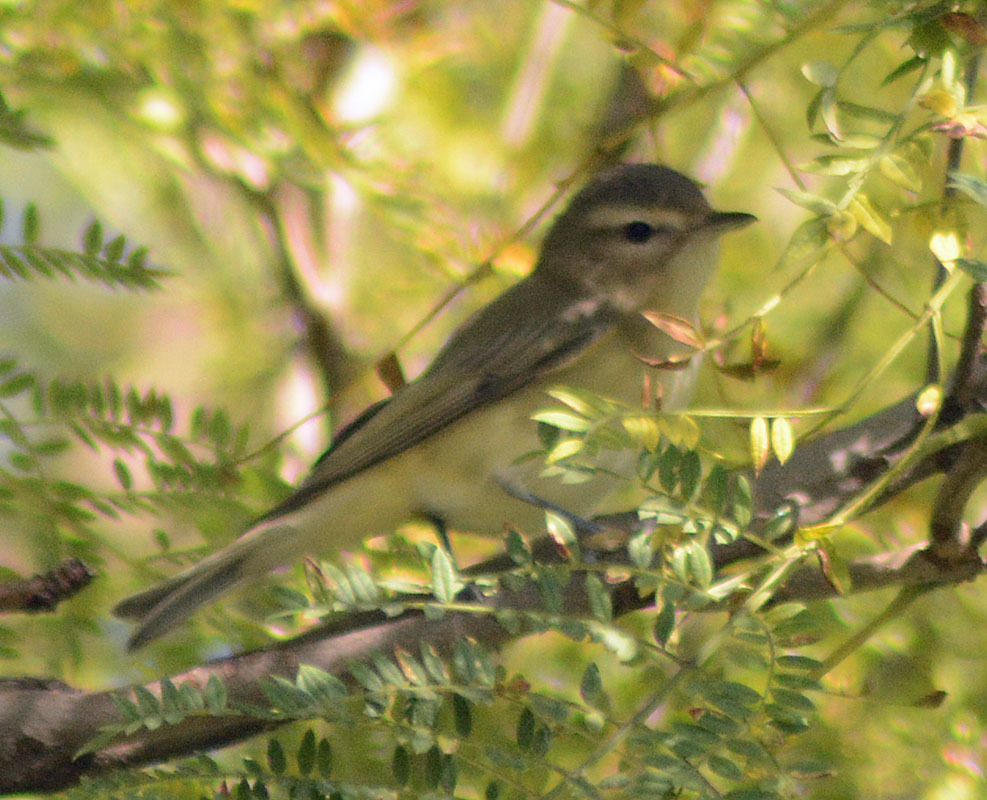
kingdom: Animalia
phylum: Chordata
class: Aves
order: Passeriformes
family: Vireonidae
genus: Vireo
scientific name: Vireo gilvus
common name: Warbling vireo
